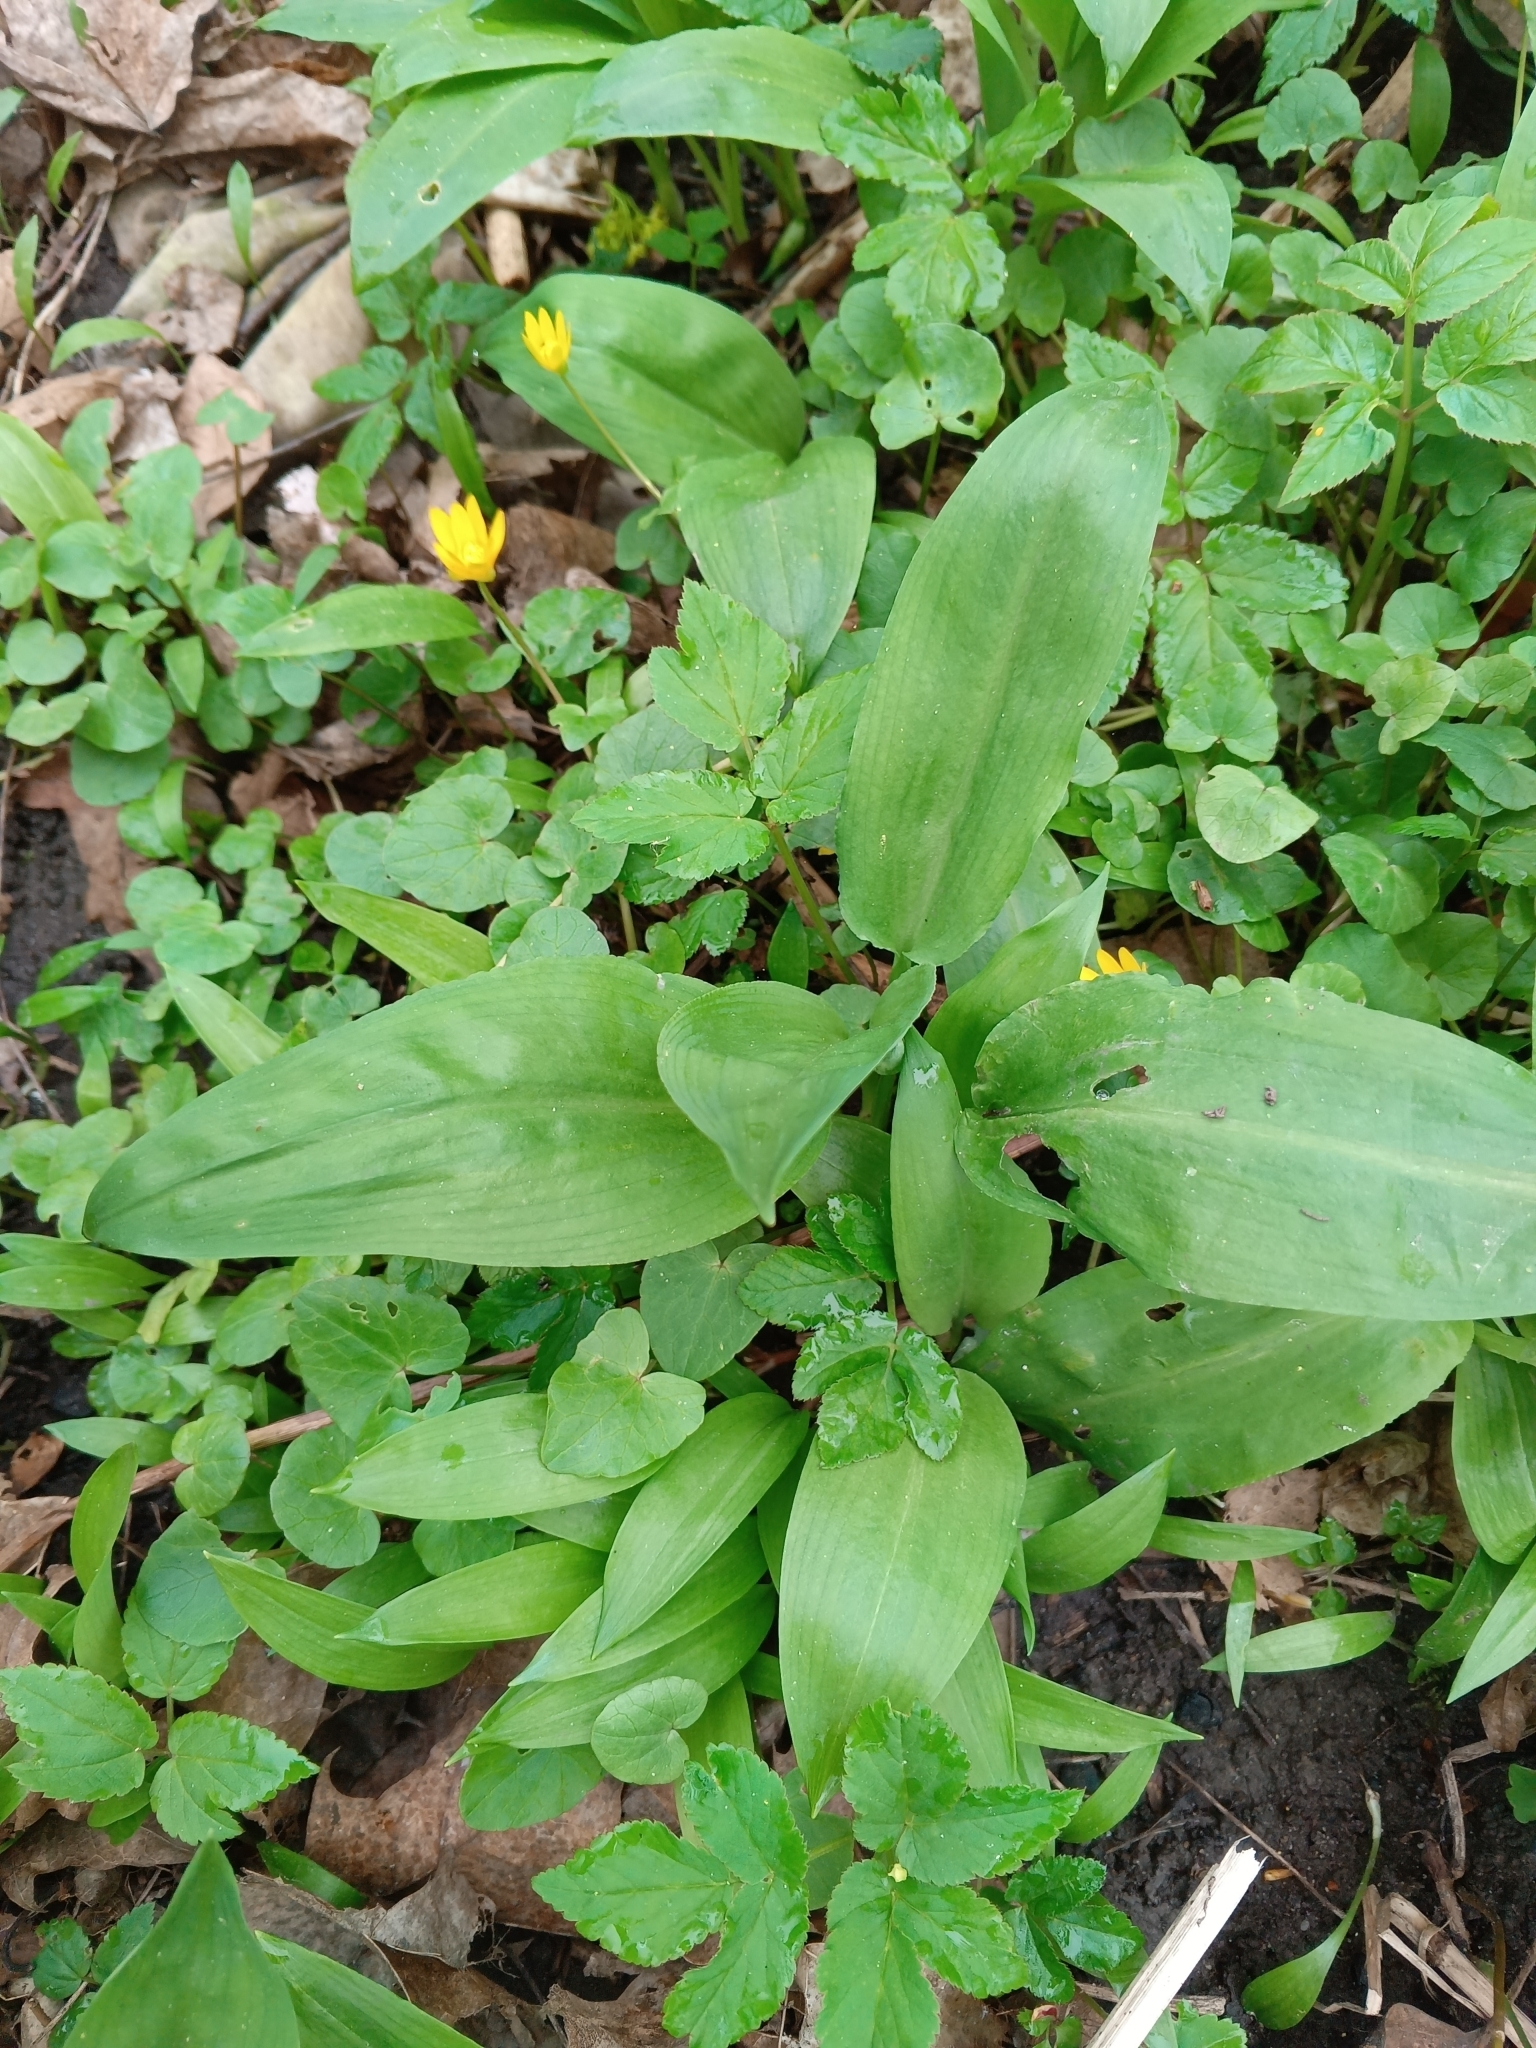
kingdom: Plantae
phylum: Tracheophyta
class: Liliopsida
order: Asparagales
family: Amaryllidaceae
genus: Allium
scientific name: Allium ursinum
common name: Ramsons
